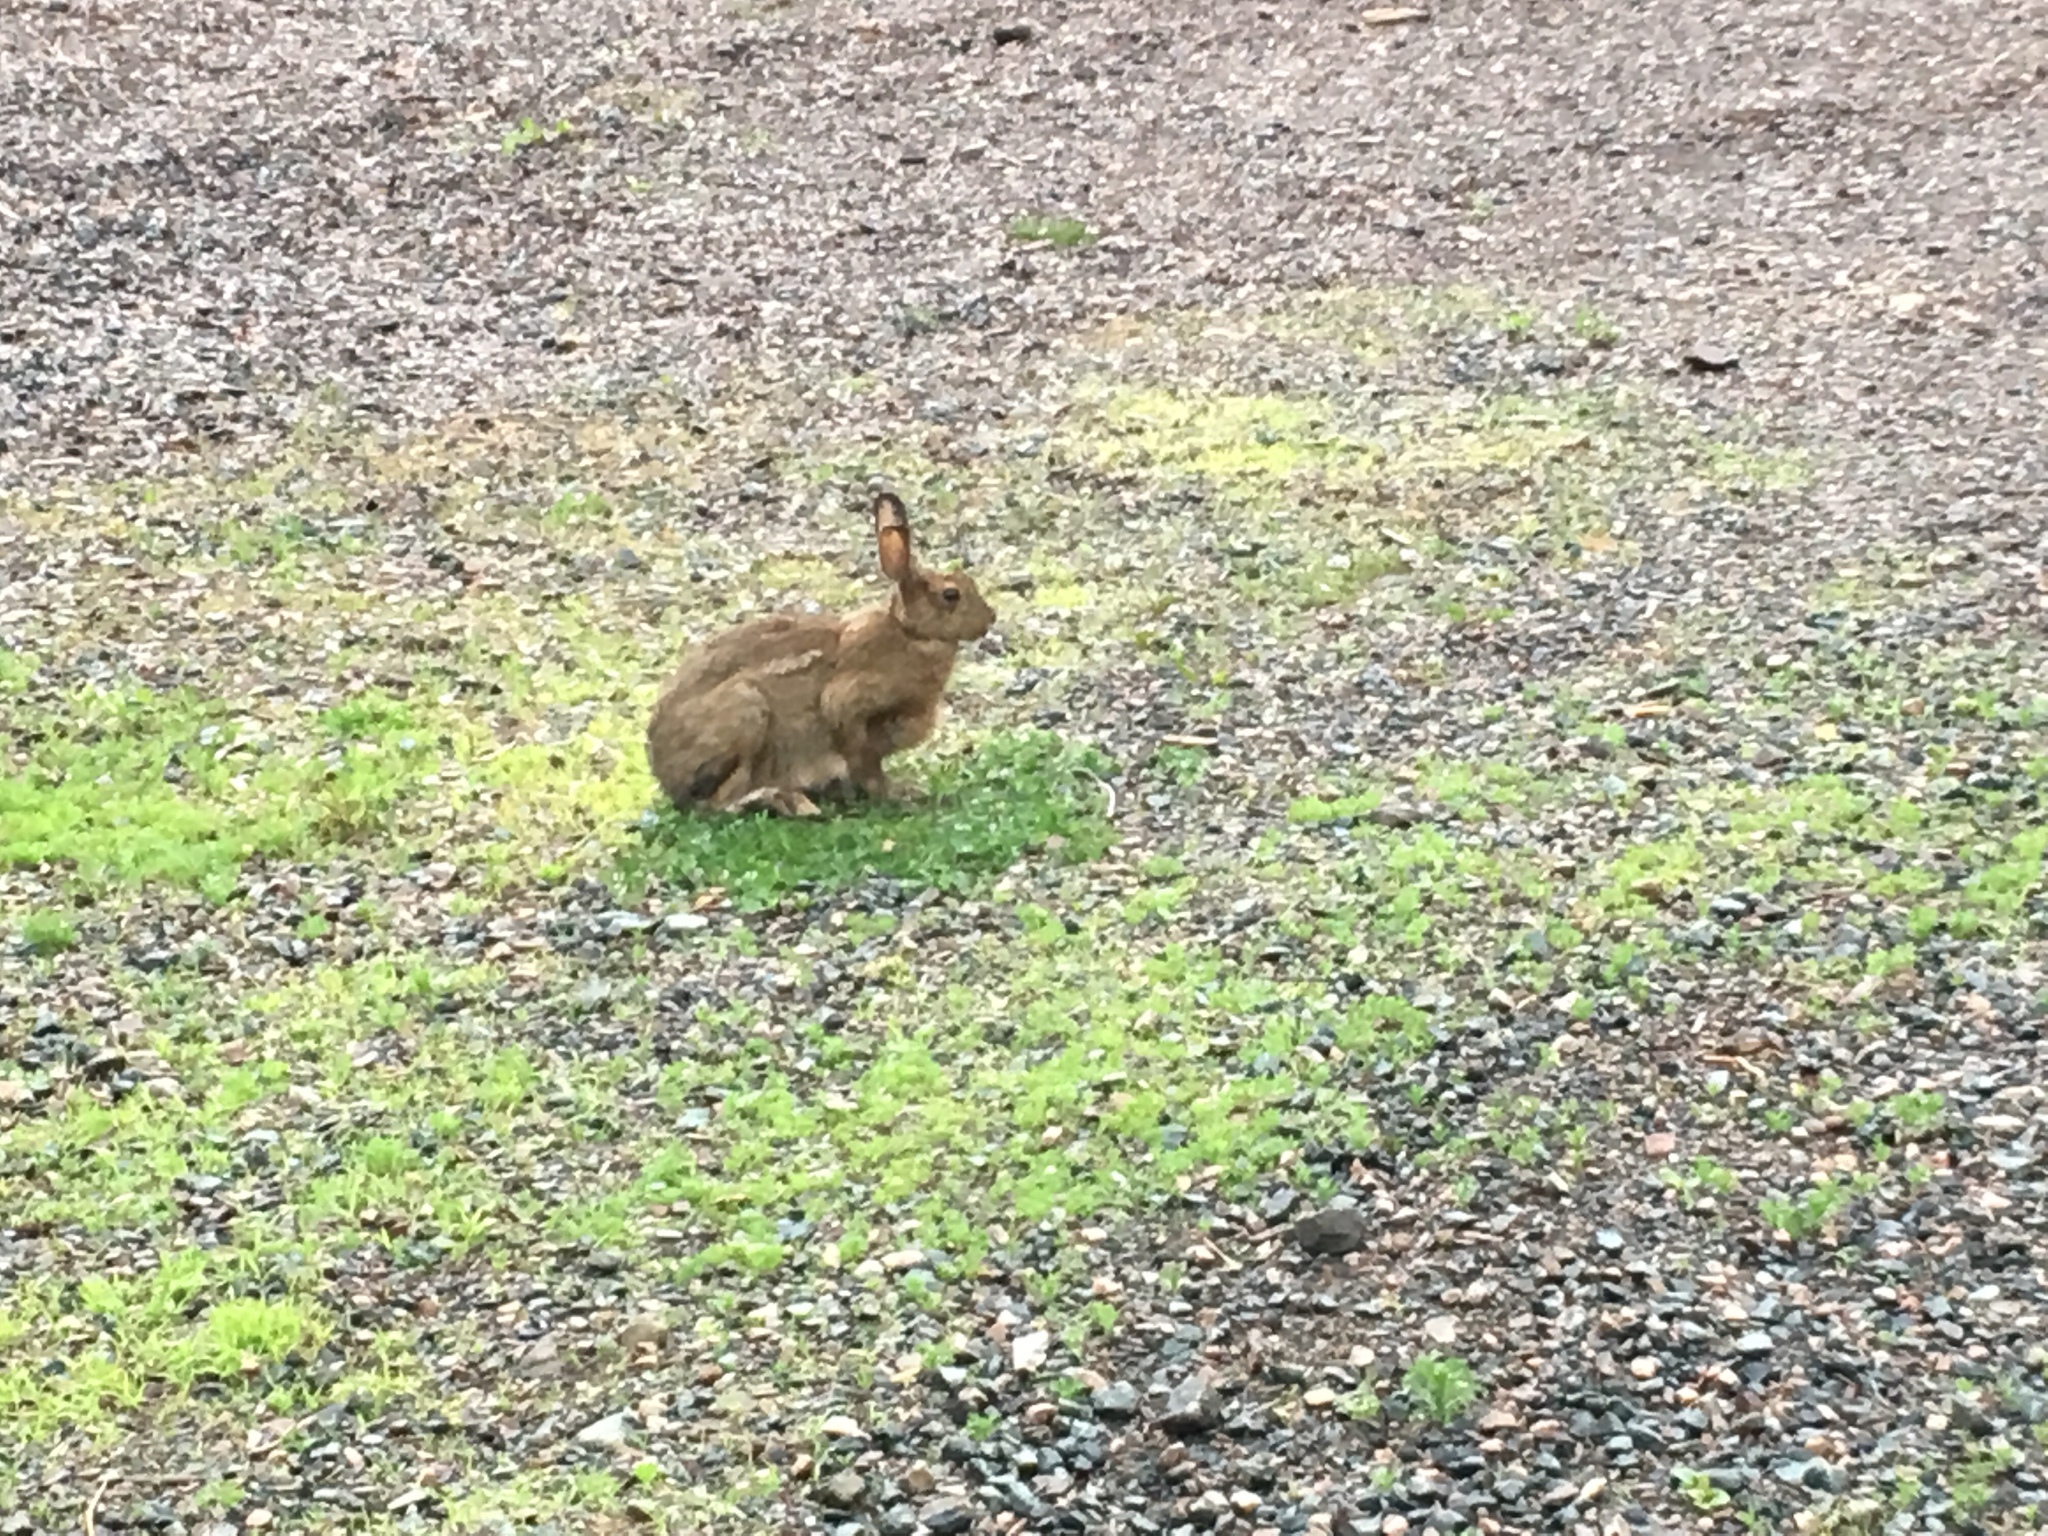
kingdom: Animalia
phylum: Chordata
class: Mammalia
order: Lagomorpha
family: Leporidae
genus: Lepus
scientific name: Lepus americanus
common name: Snowshoe hare
